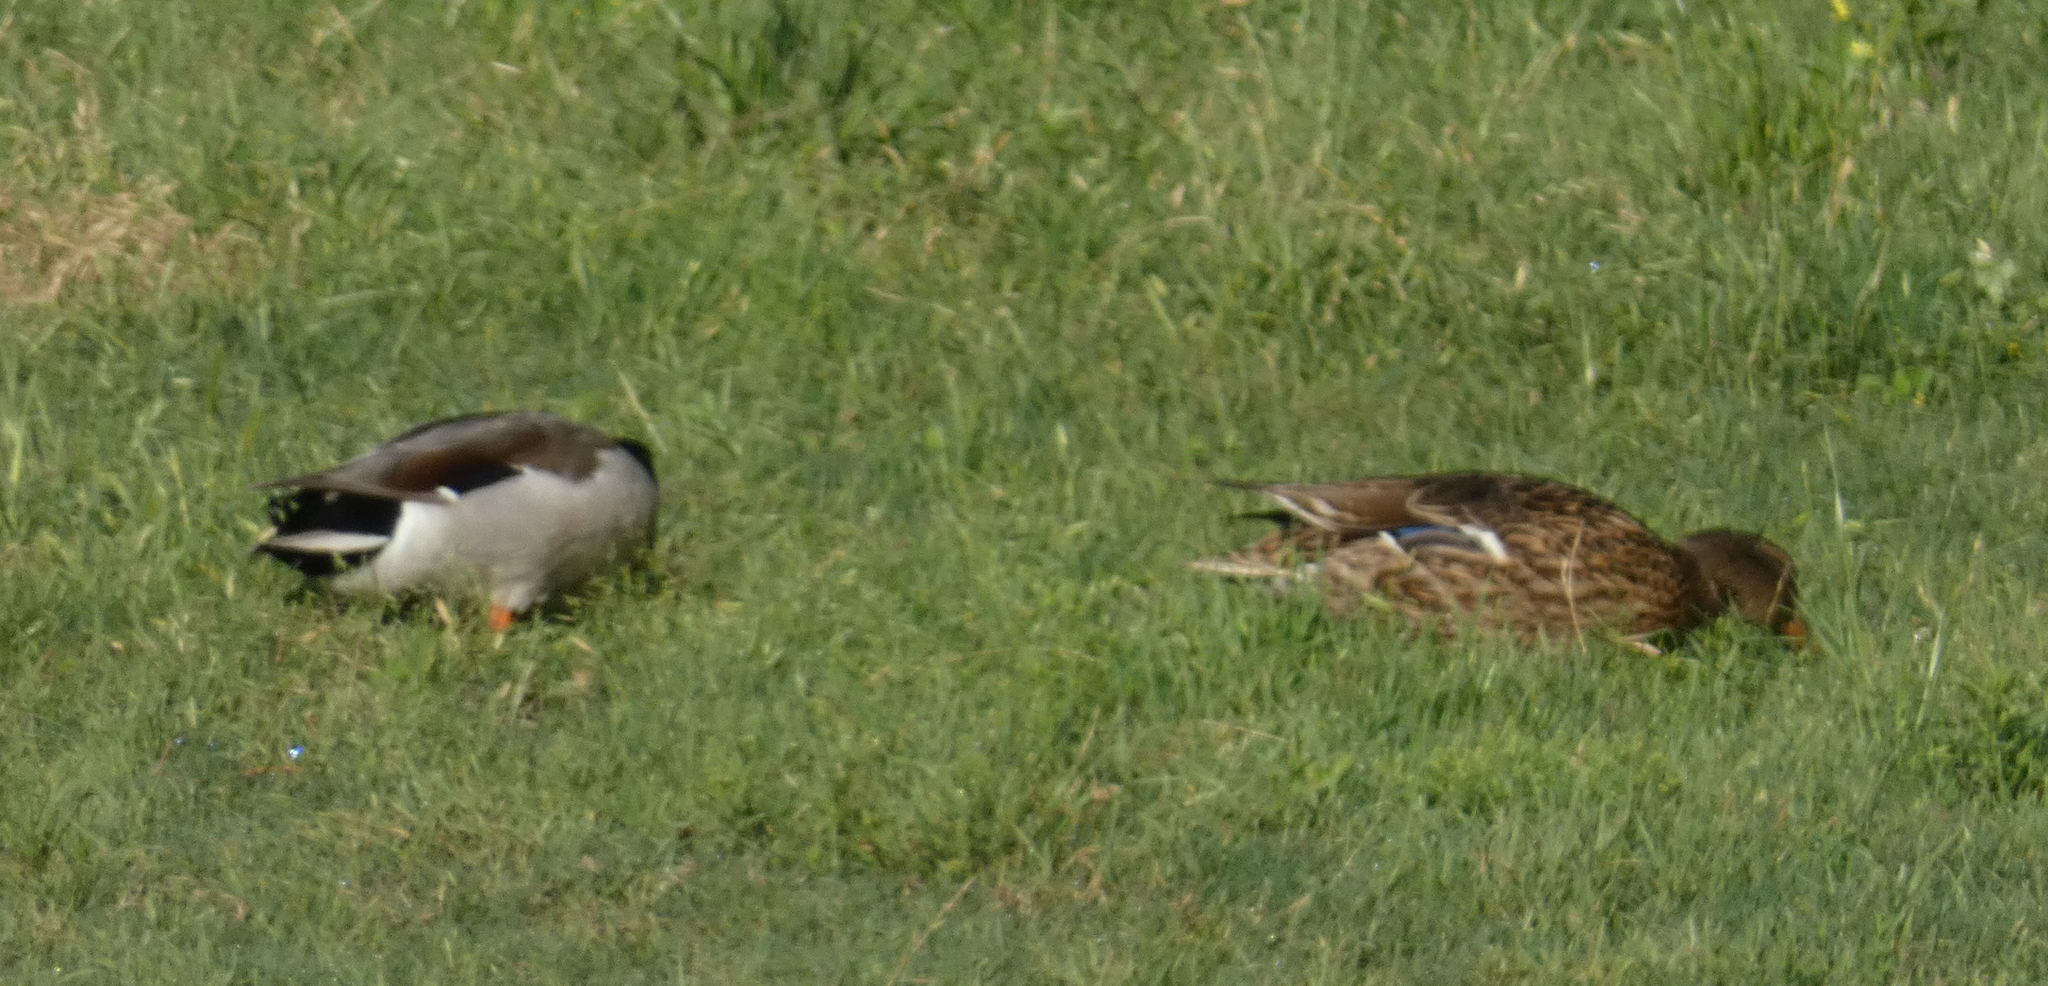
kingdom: Animalia
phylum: Chordata
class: Aves
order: Anseriformes
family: Anatidae
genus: Anas
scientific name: Anas platyrhynchos
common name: Mallard
